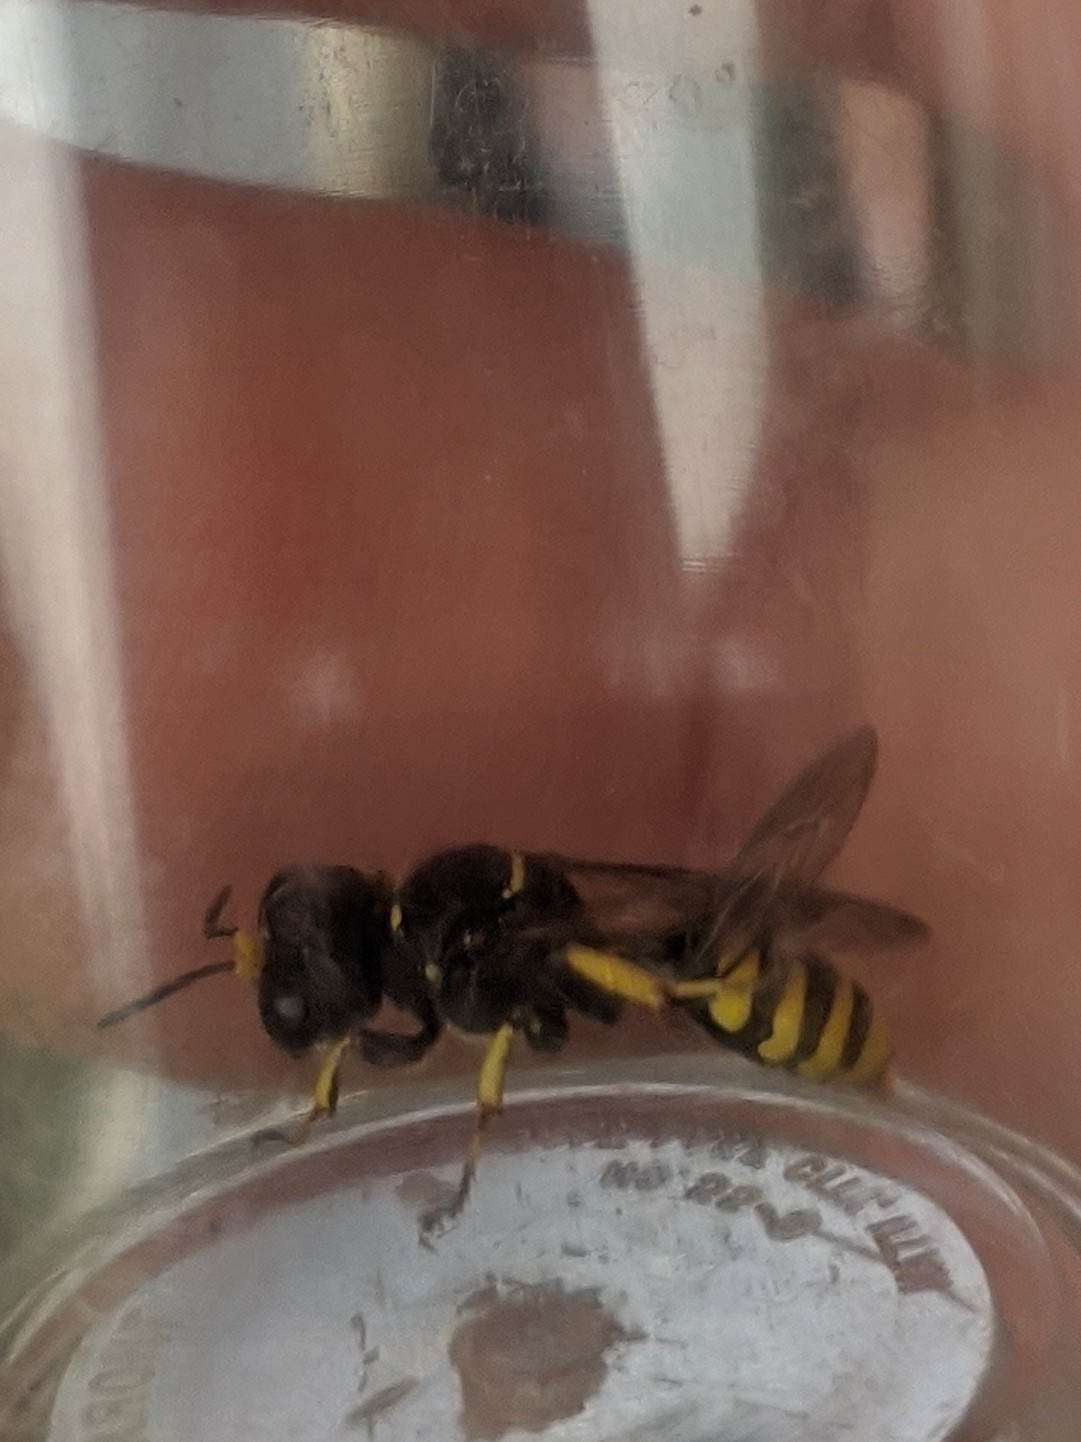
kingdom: Animalia
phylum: Arthropoda
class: Insecta
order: Hymenoptera
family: Crabronidae
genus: Ectemnius
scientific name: Ectemnius cephalotes
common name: Sphecid wasp
